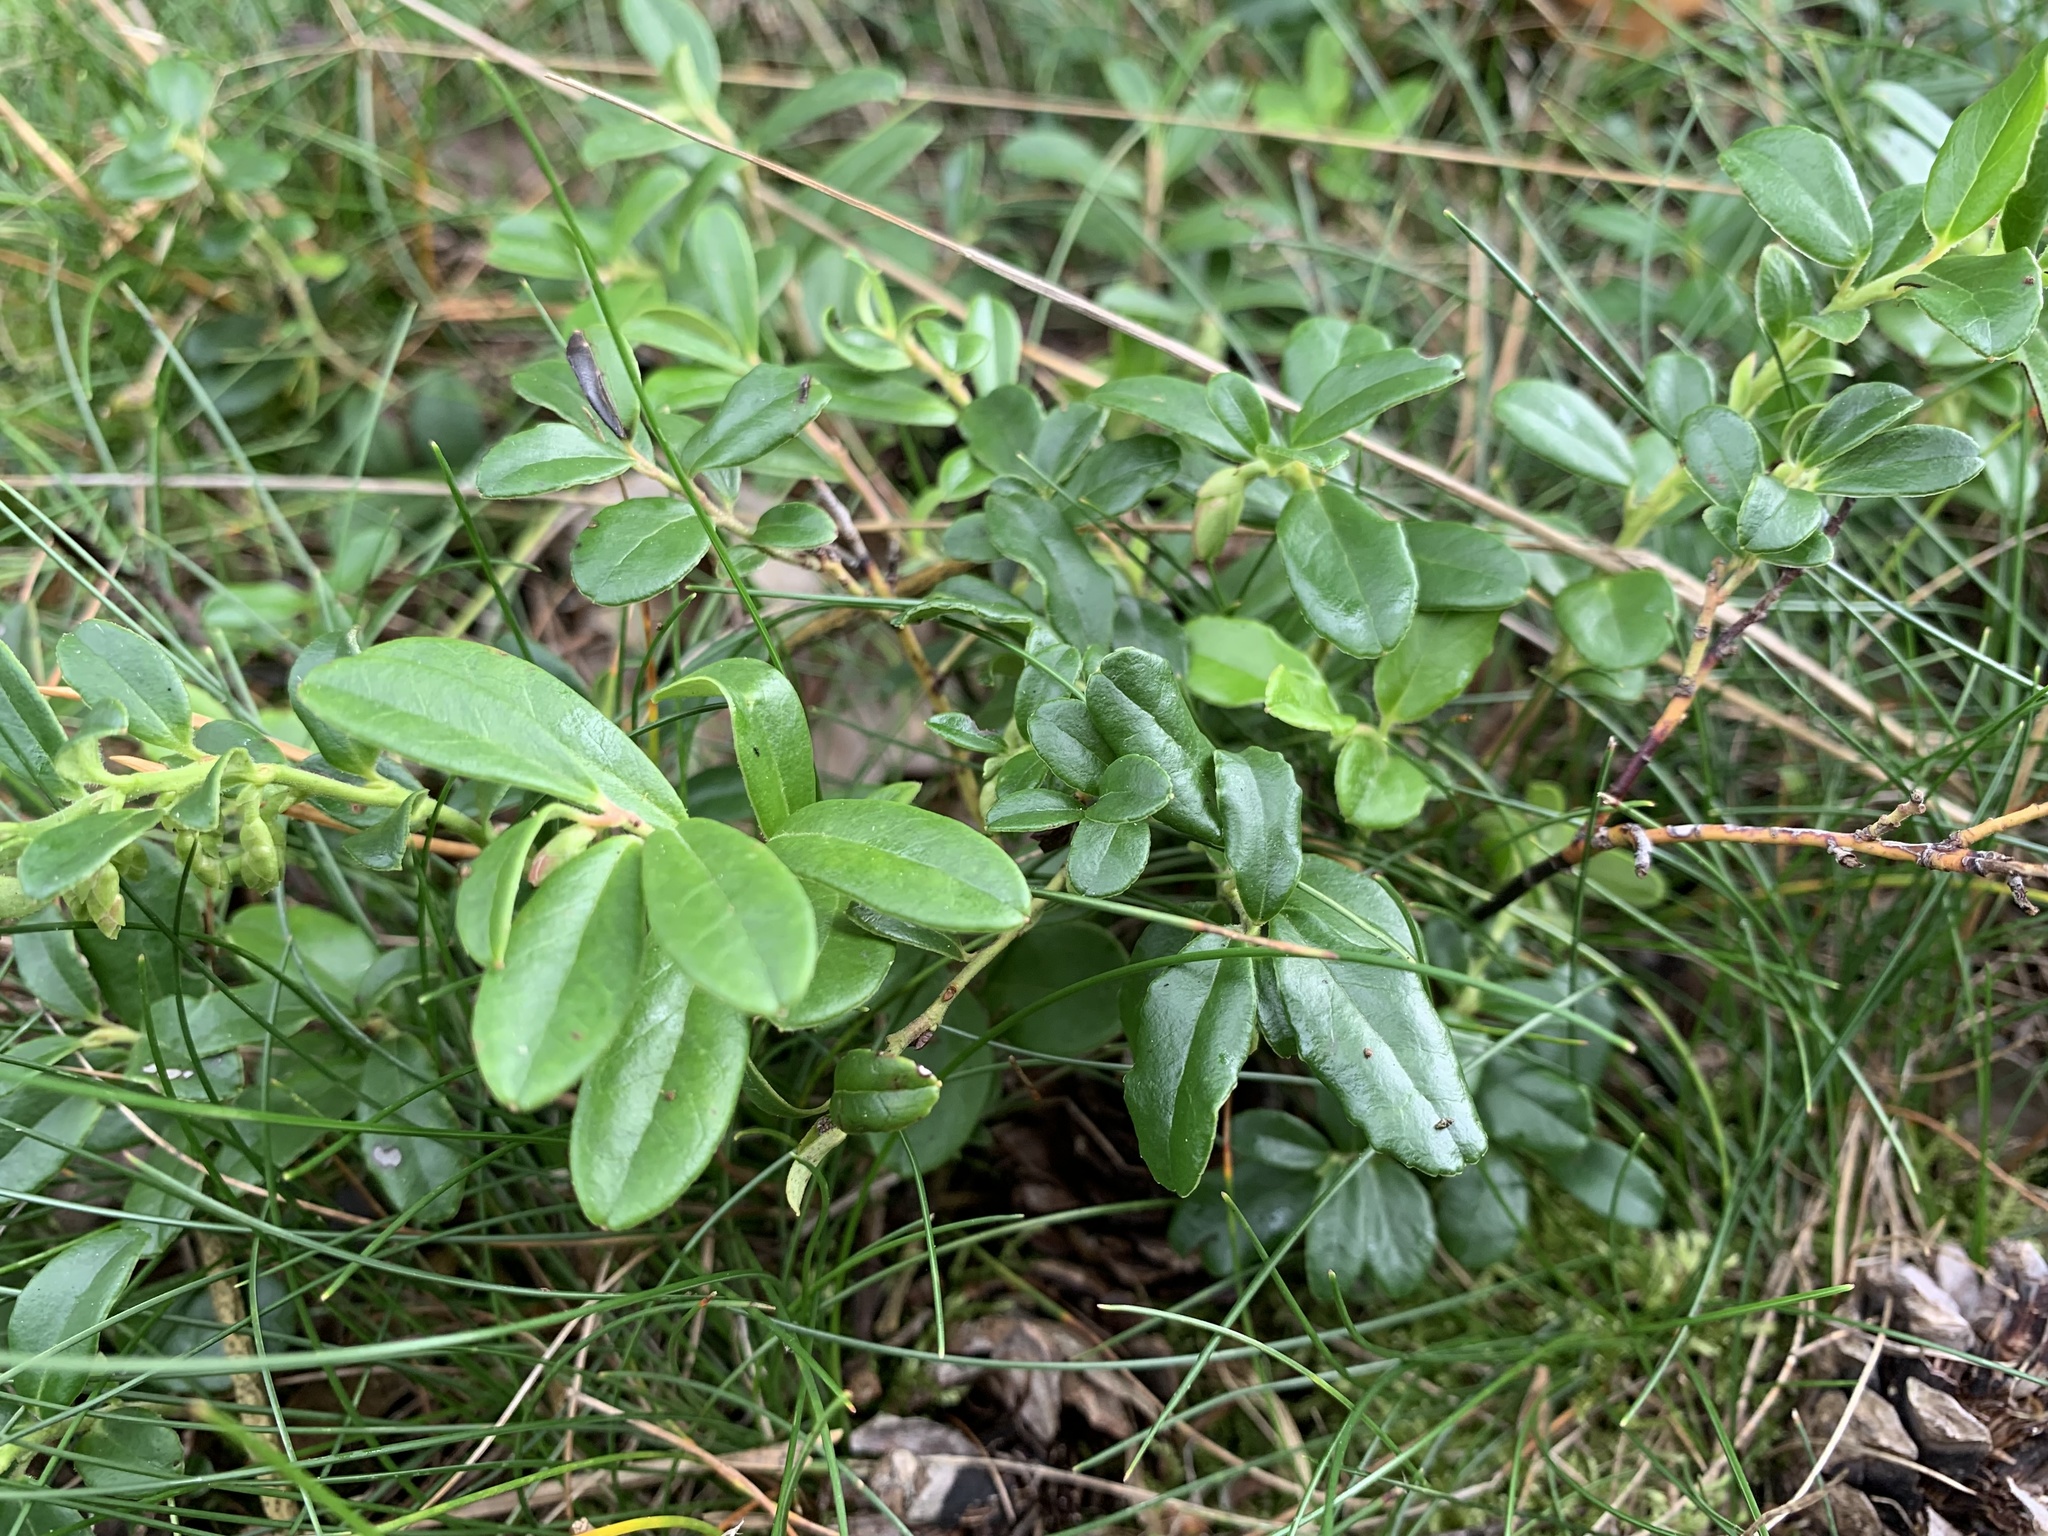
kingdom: Plantae
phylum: Tracheophyta
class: Magnoliopsida
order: Ericales
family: Ericaceae
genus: Vaccinium
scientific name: Vaccinium vitis-idaea
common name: Cowberry
